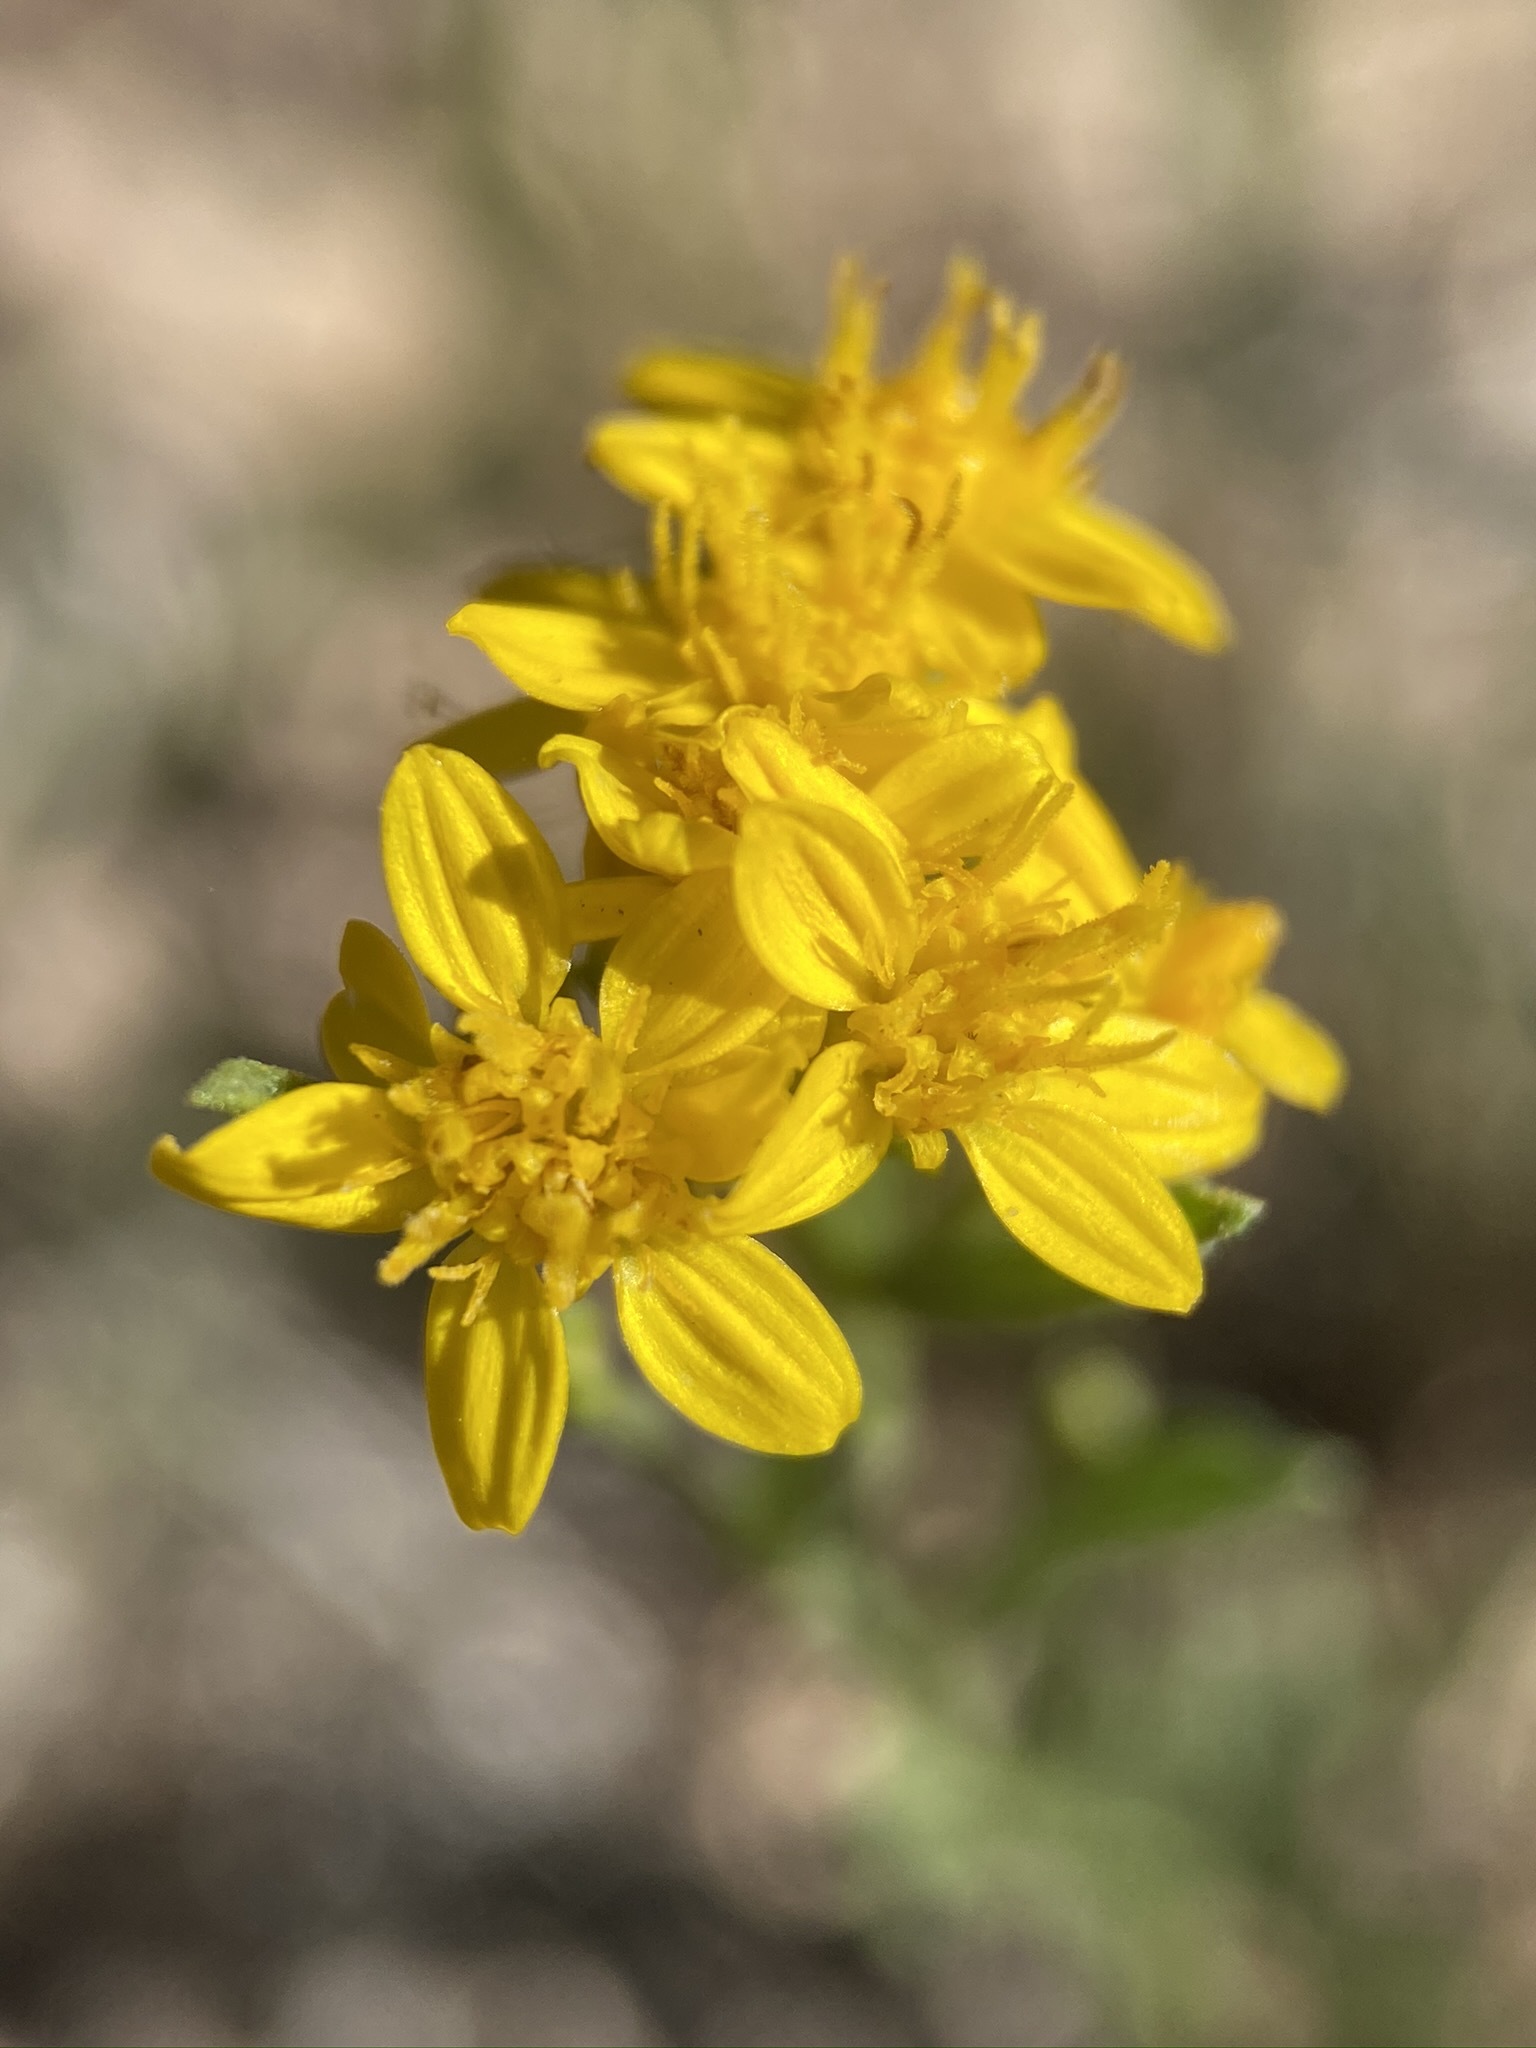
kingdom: Plantae
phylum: Tracheophyta
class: Magnoliopsida
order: Asterales
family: Asteraceae
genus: Gutierrezia
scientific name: Gutierrezia sarothrae
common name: Broom snakeweed
